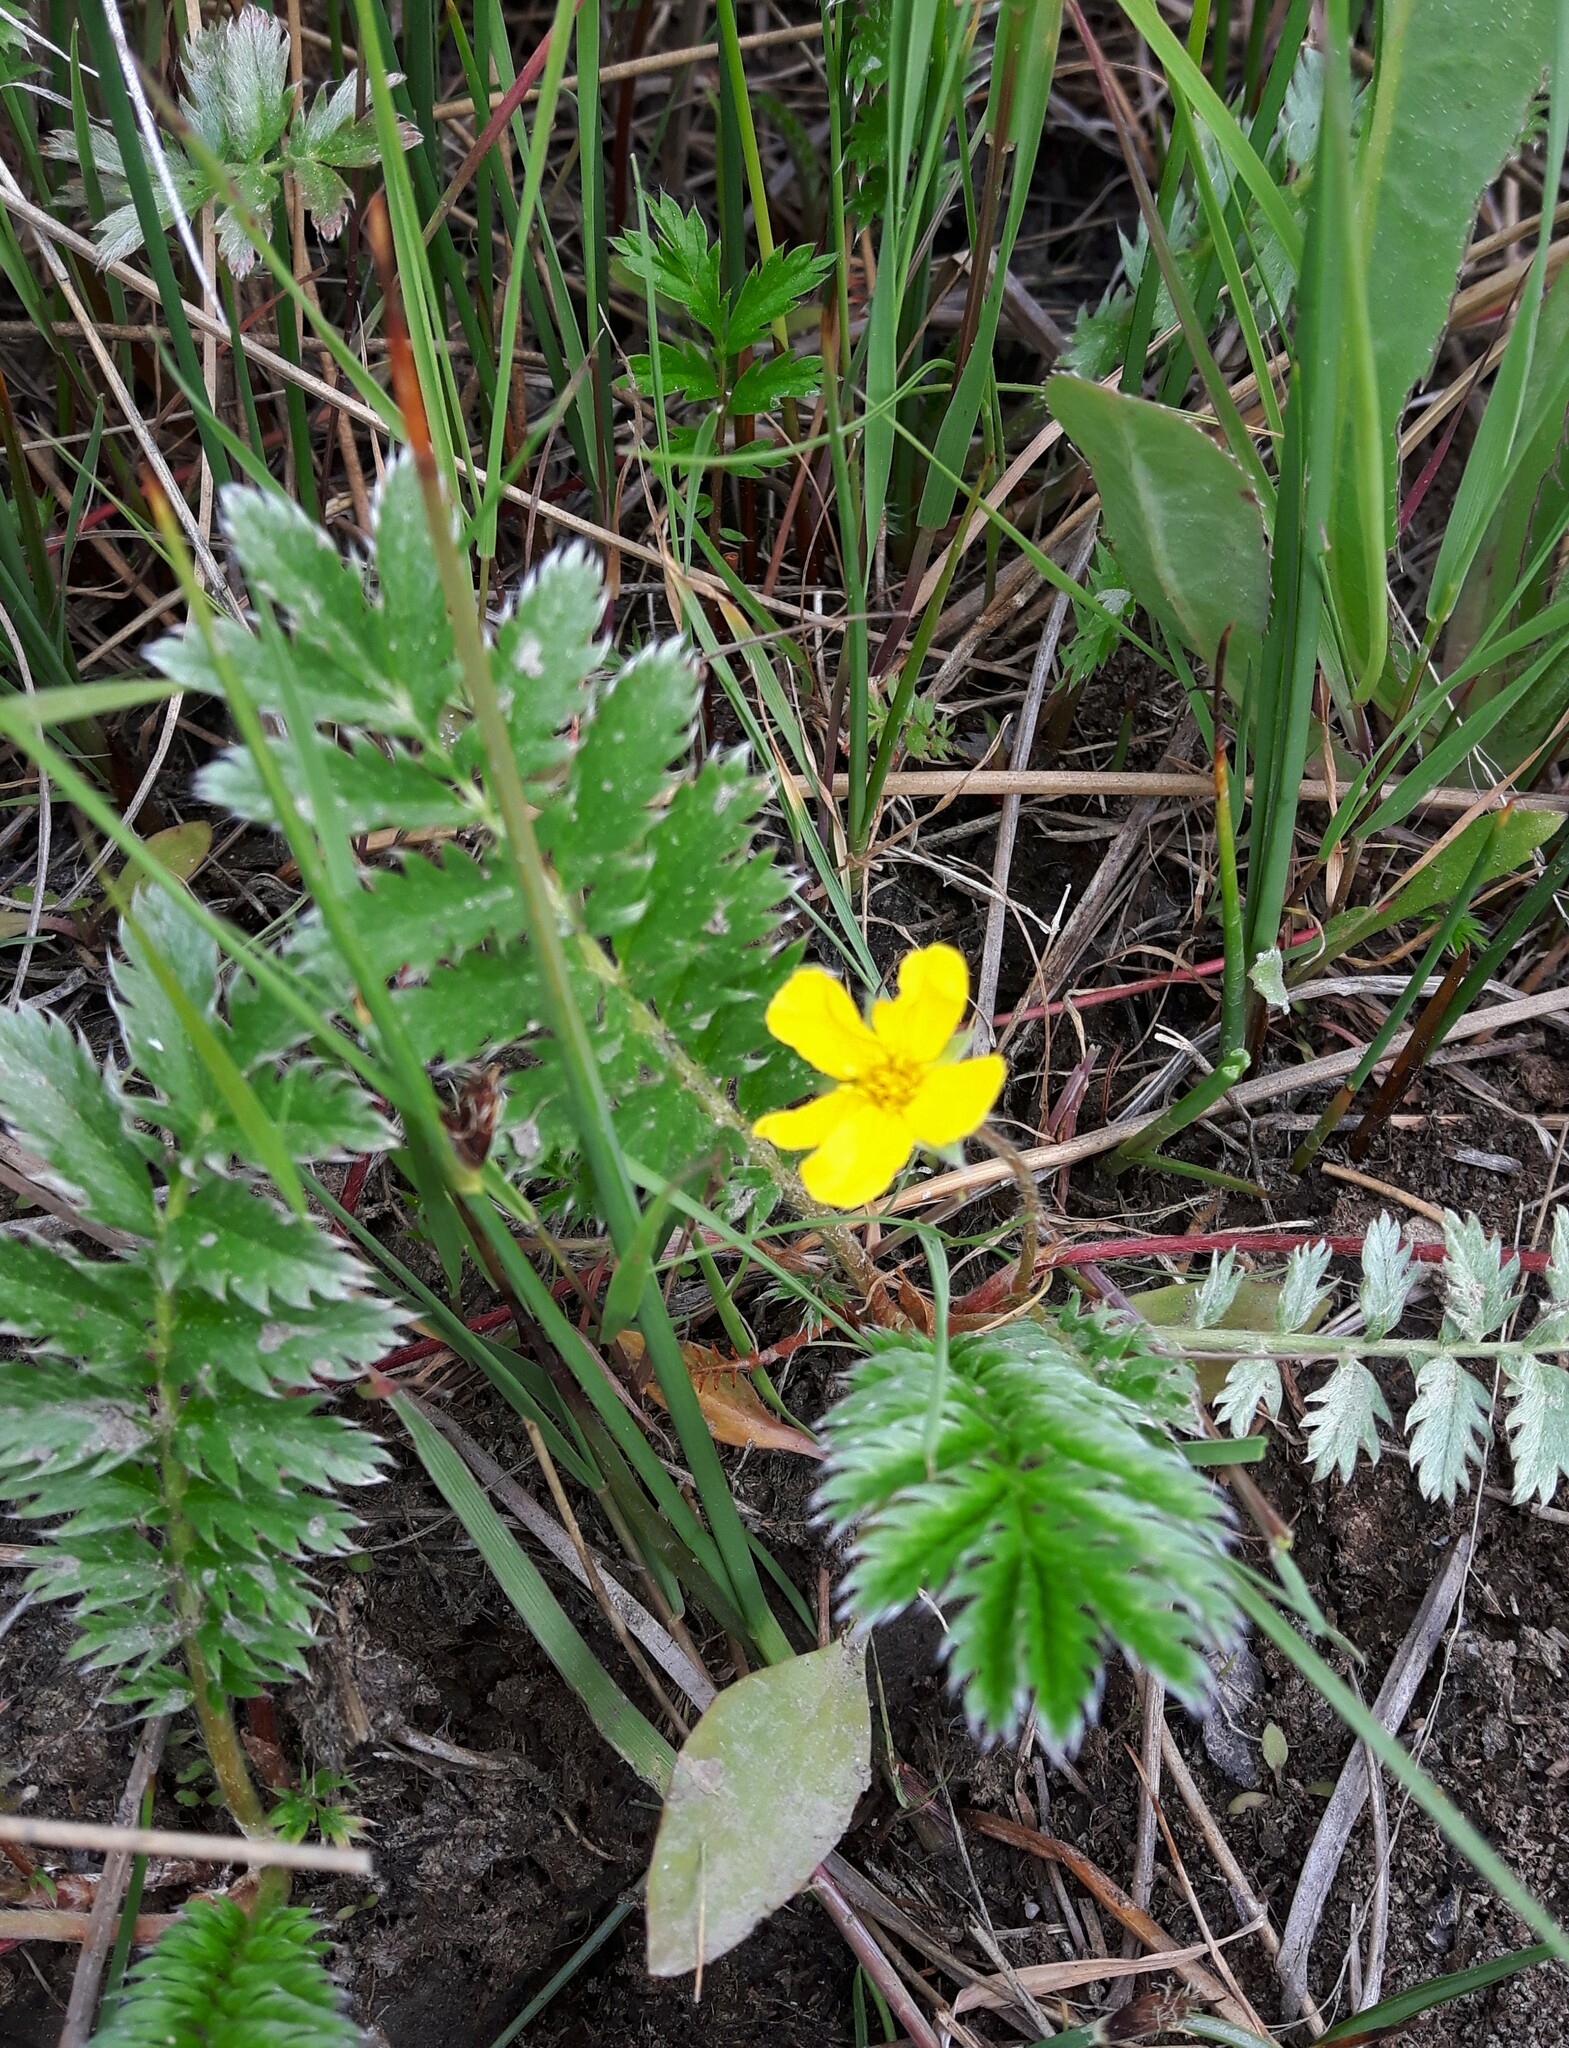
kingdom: Plantae
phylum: Tracheophyta
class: Magnoliopsida
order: Rosales
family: Rosaceae
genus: Argentina
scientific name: Argentina anserina
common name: Common silverweed
